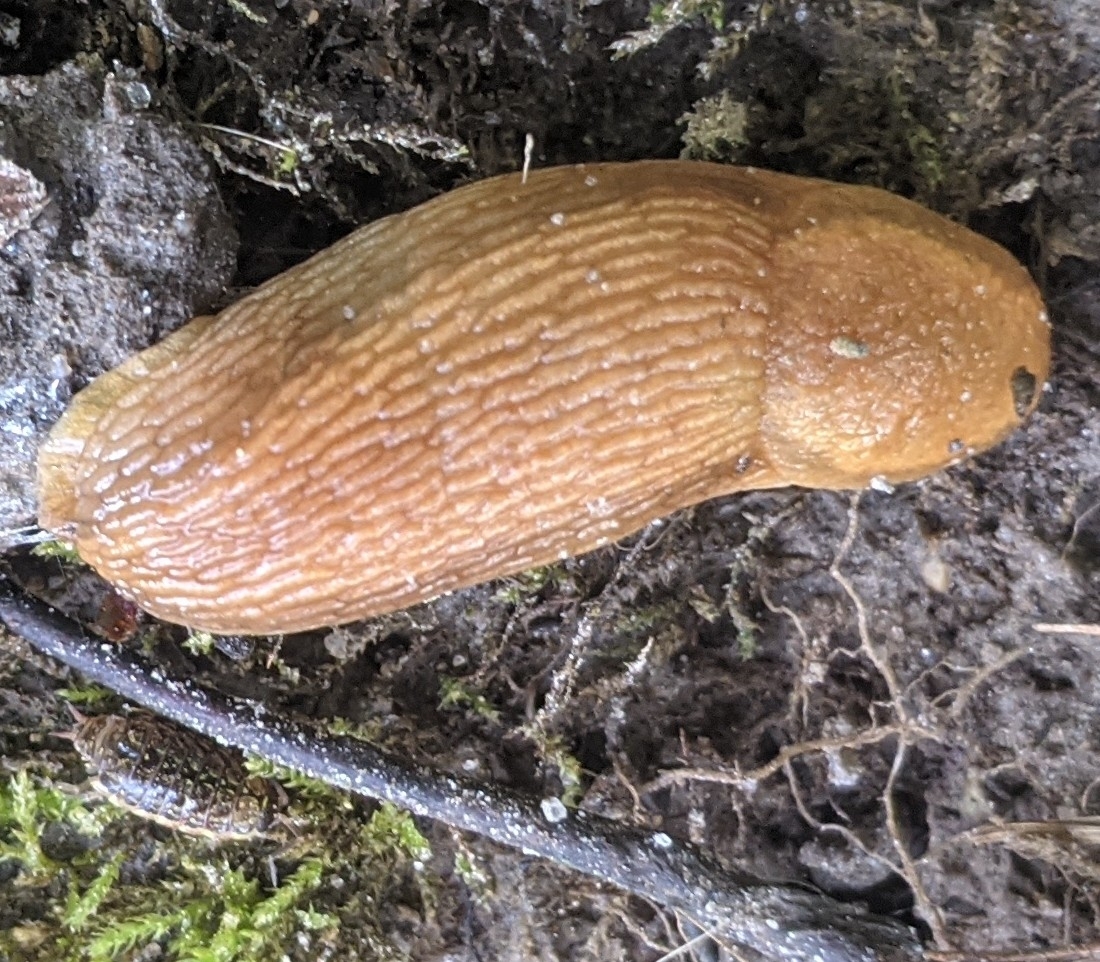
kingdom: Animalia
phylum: Mollusca
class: Gastropoda
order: Stylommatophora
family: Arionidae
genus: Arion
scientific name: Arion subfuscus
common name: Dusky arion
